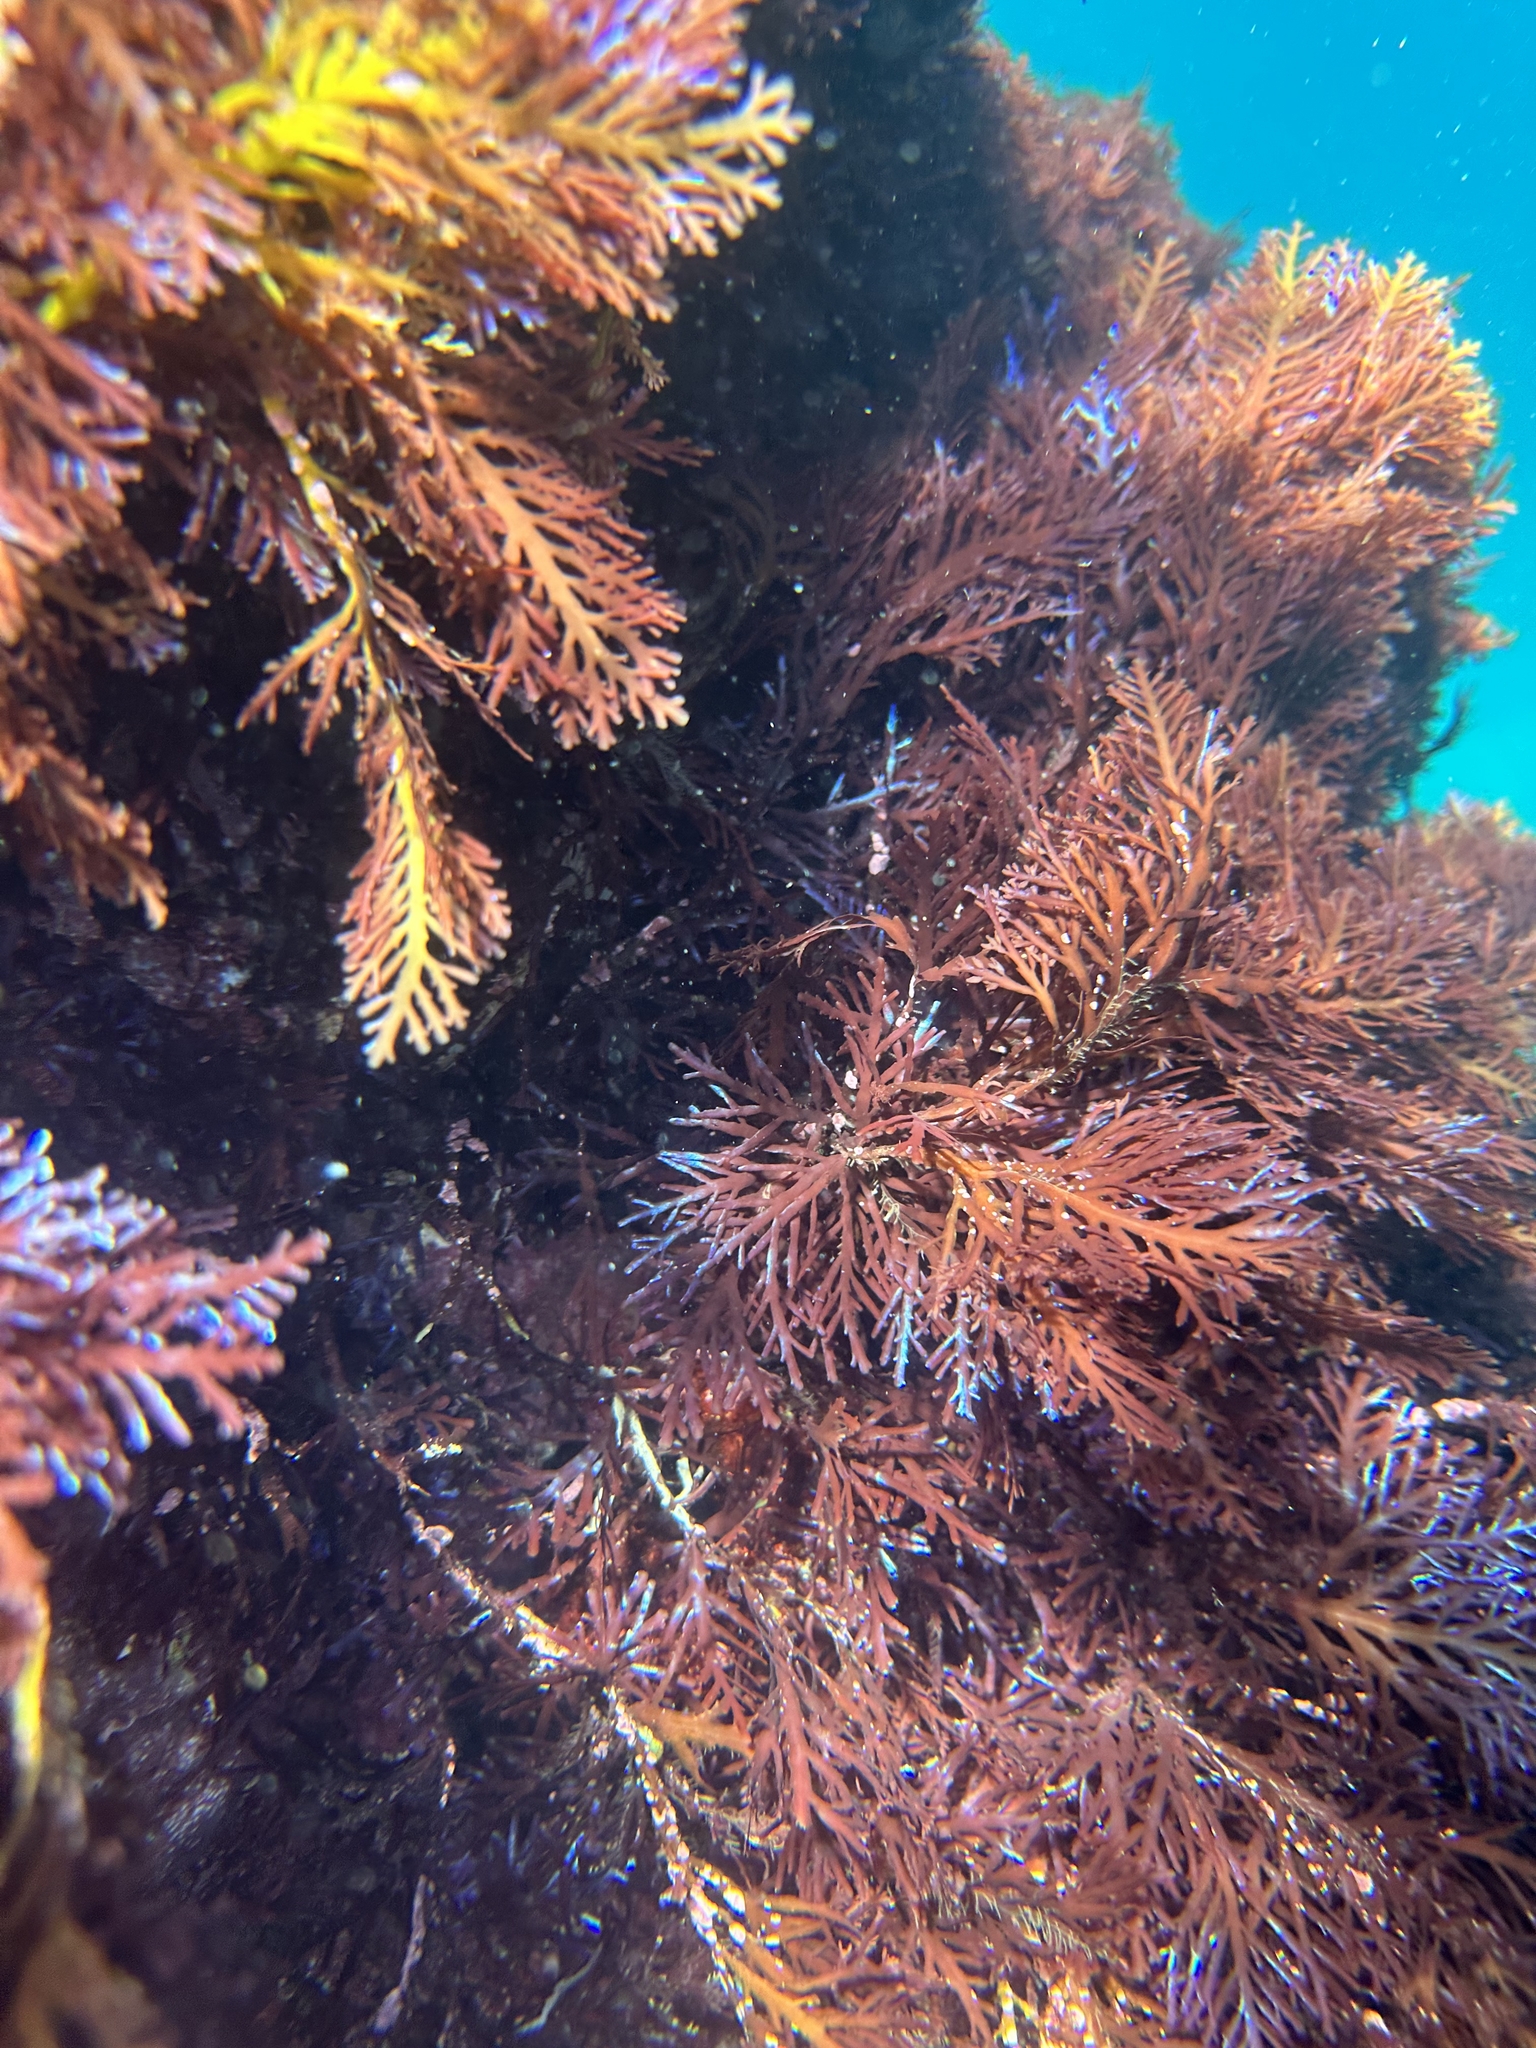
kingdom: Plantae
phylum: Rhodophyta
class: Florideophyceae
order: Gelidiales
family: Pterocladiaceae
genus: Pterocladia
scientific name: Pterocladia lucida
